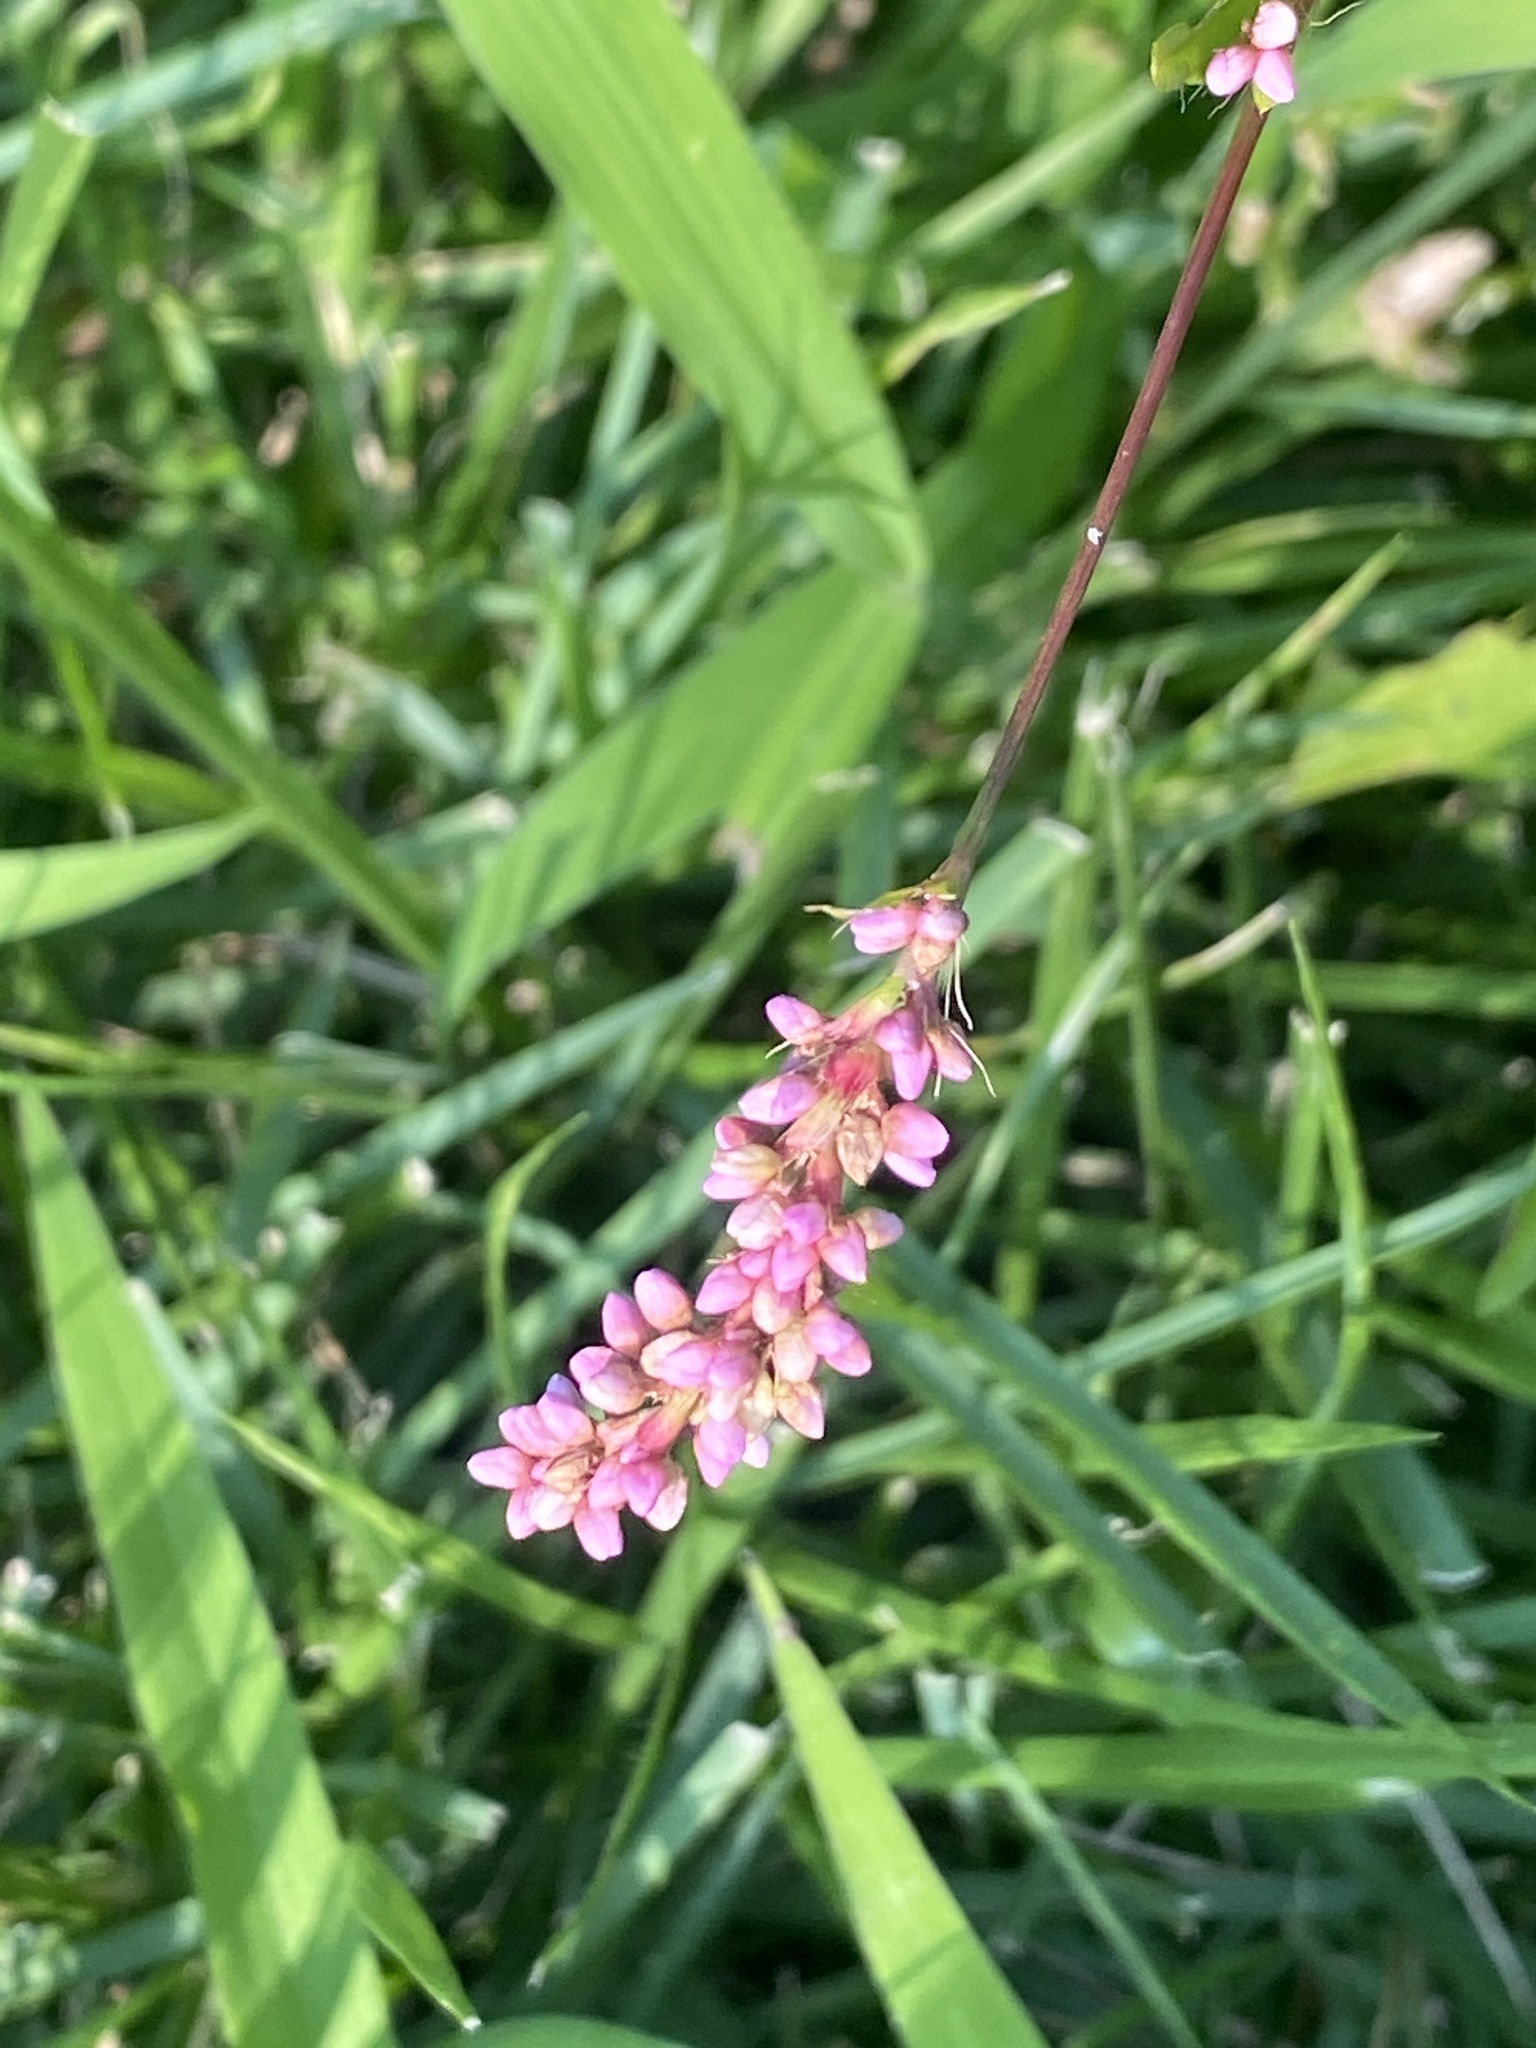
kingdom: Plantae
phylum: Tracheophyta
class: Magnoliopsida
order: Caryophyllales
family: Polygonaceae
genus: Persicaria
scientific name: Persicaria longiseta
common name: Bristly lady's-thumb
